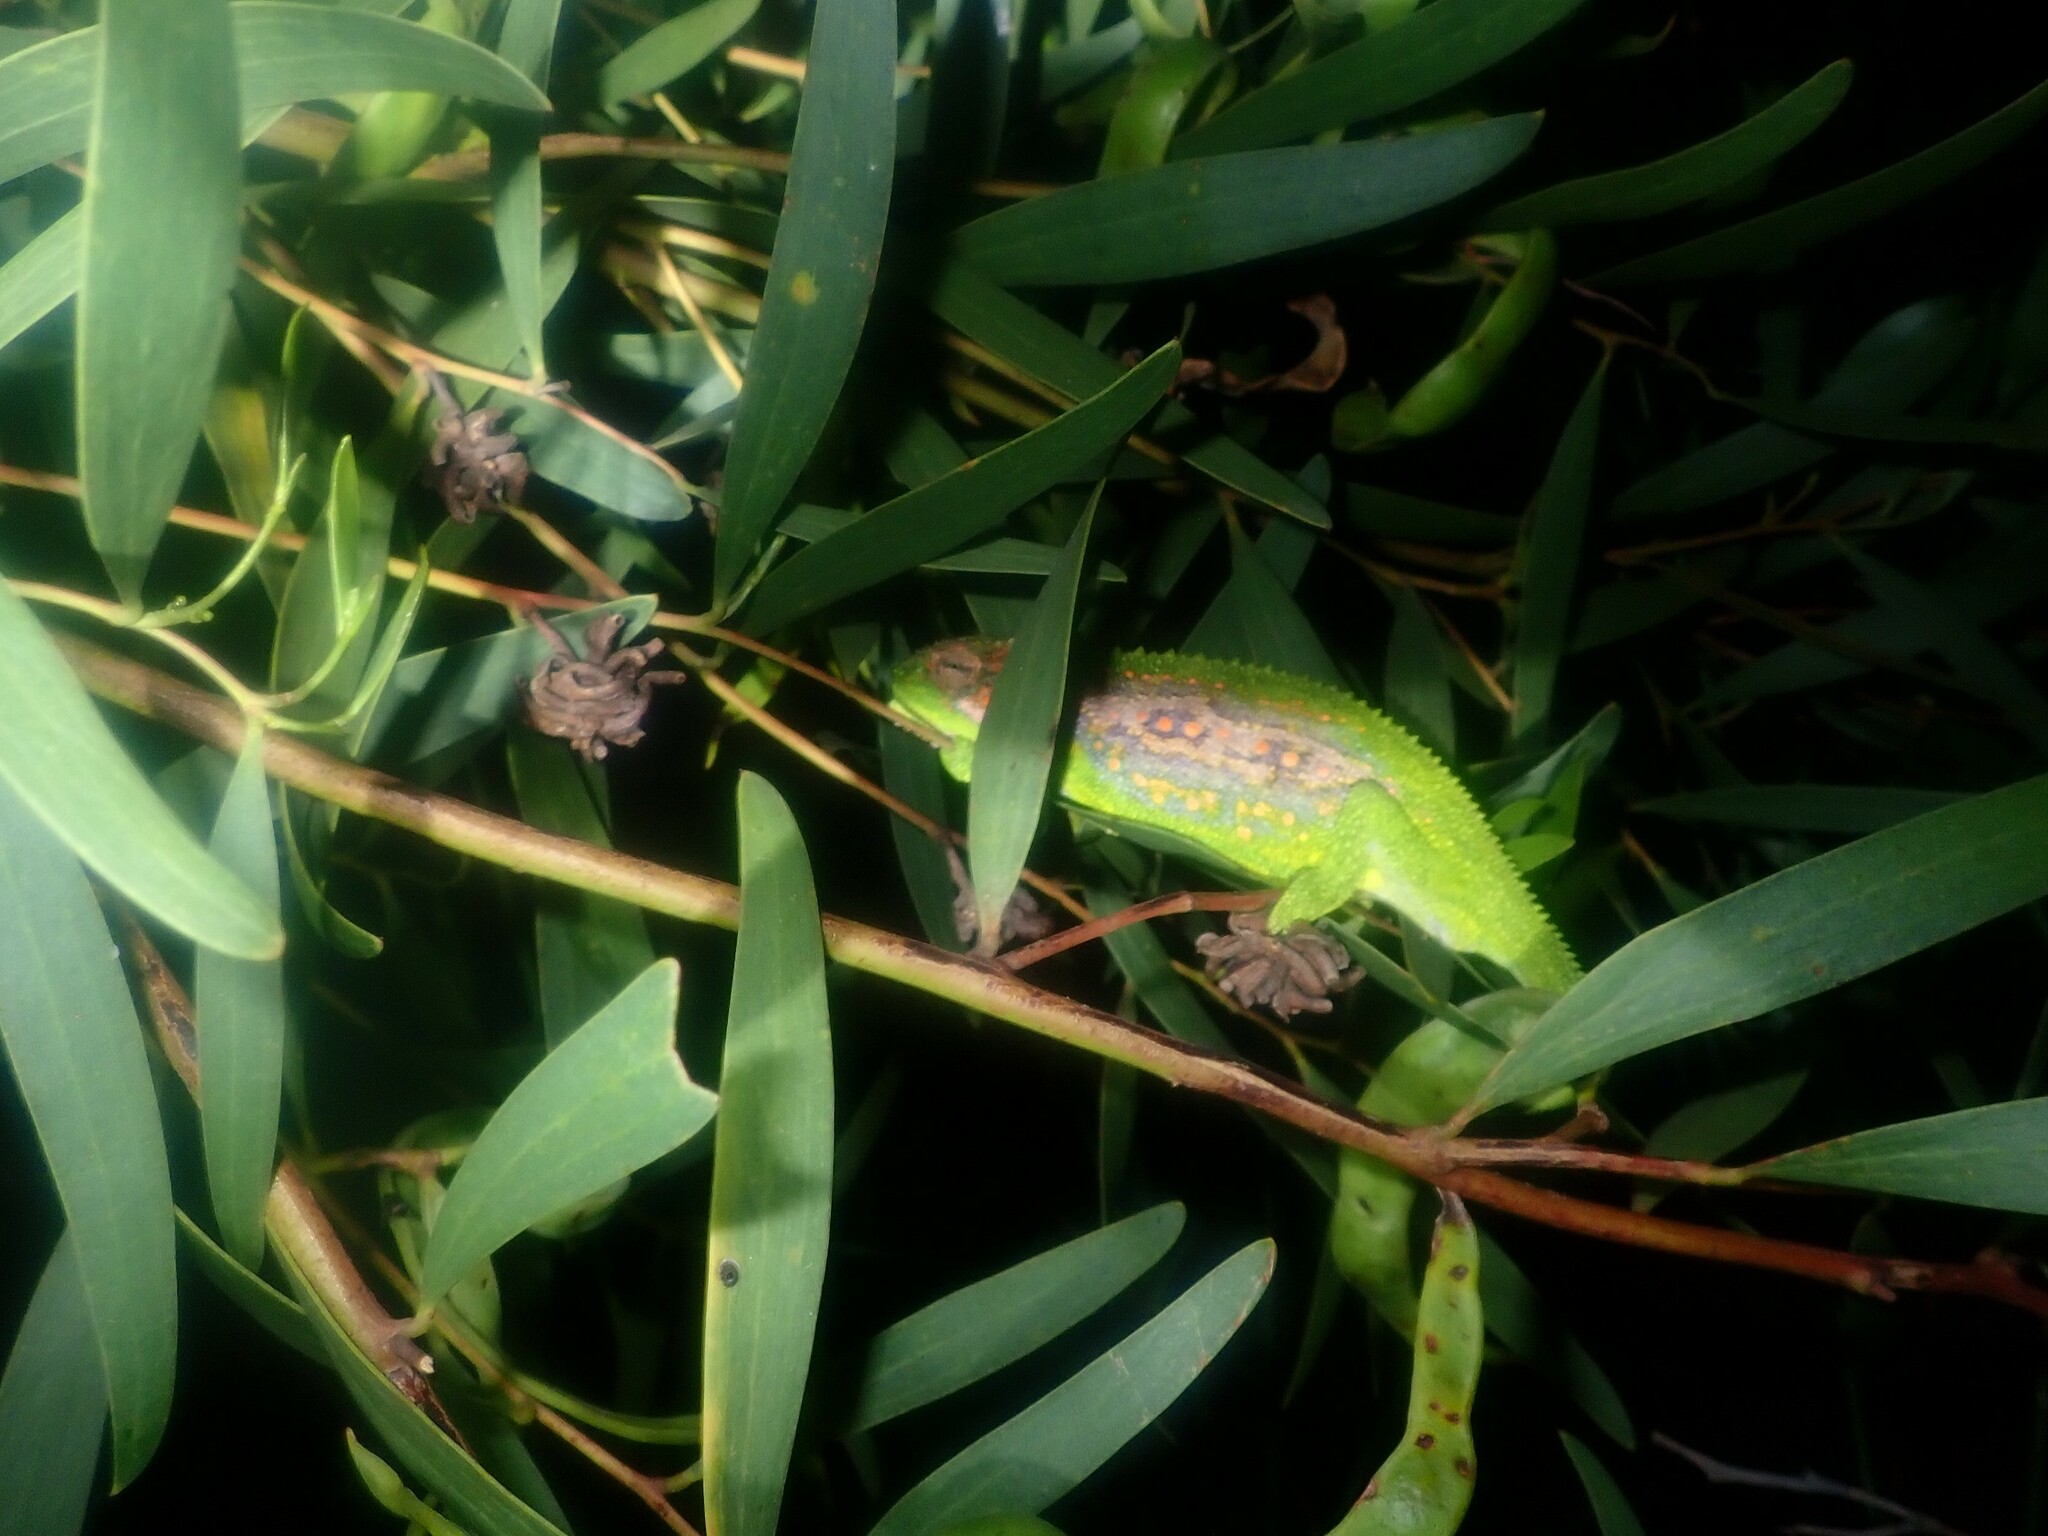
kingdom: Animalia
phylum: Chordata
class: Squamata
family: Chamaeleonidae
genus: Bradypodion
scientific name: Bradypodion pumilum
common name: Cape dwarf chameleon
